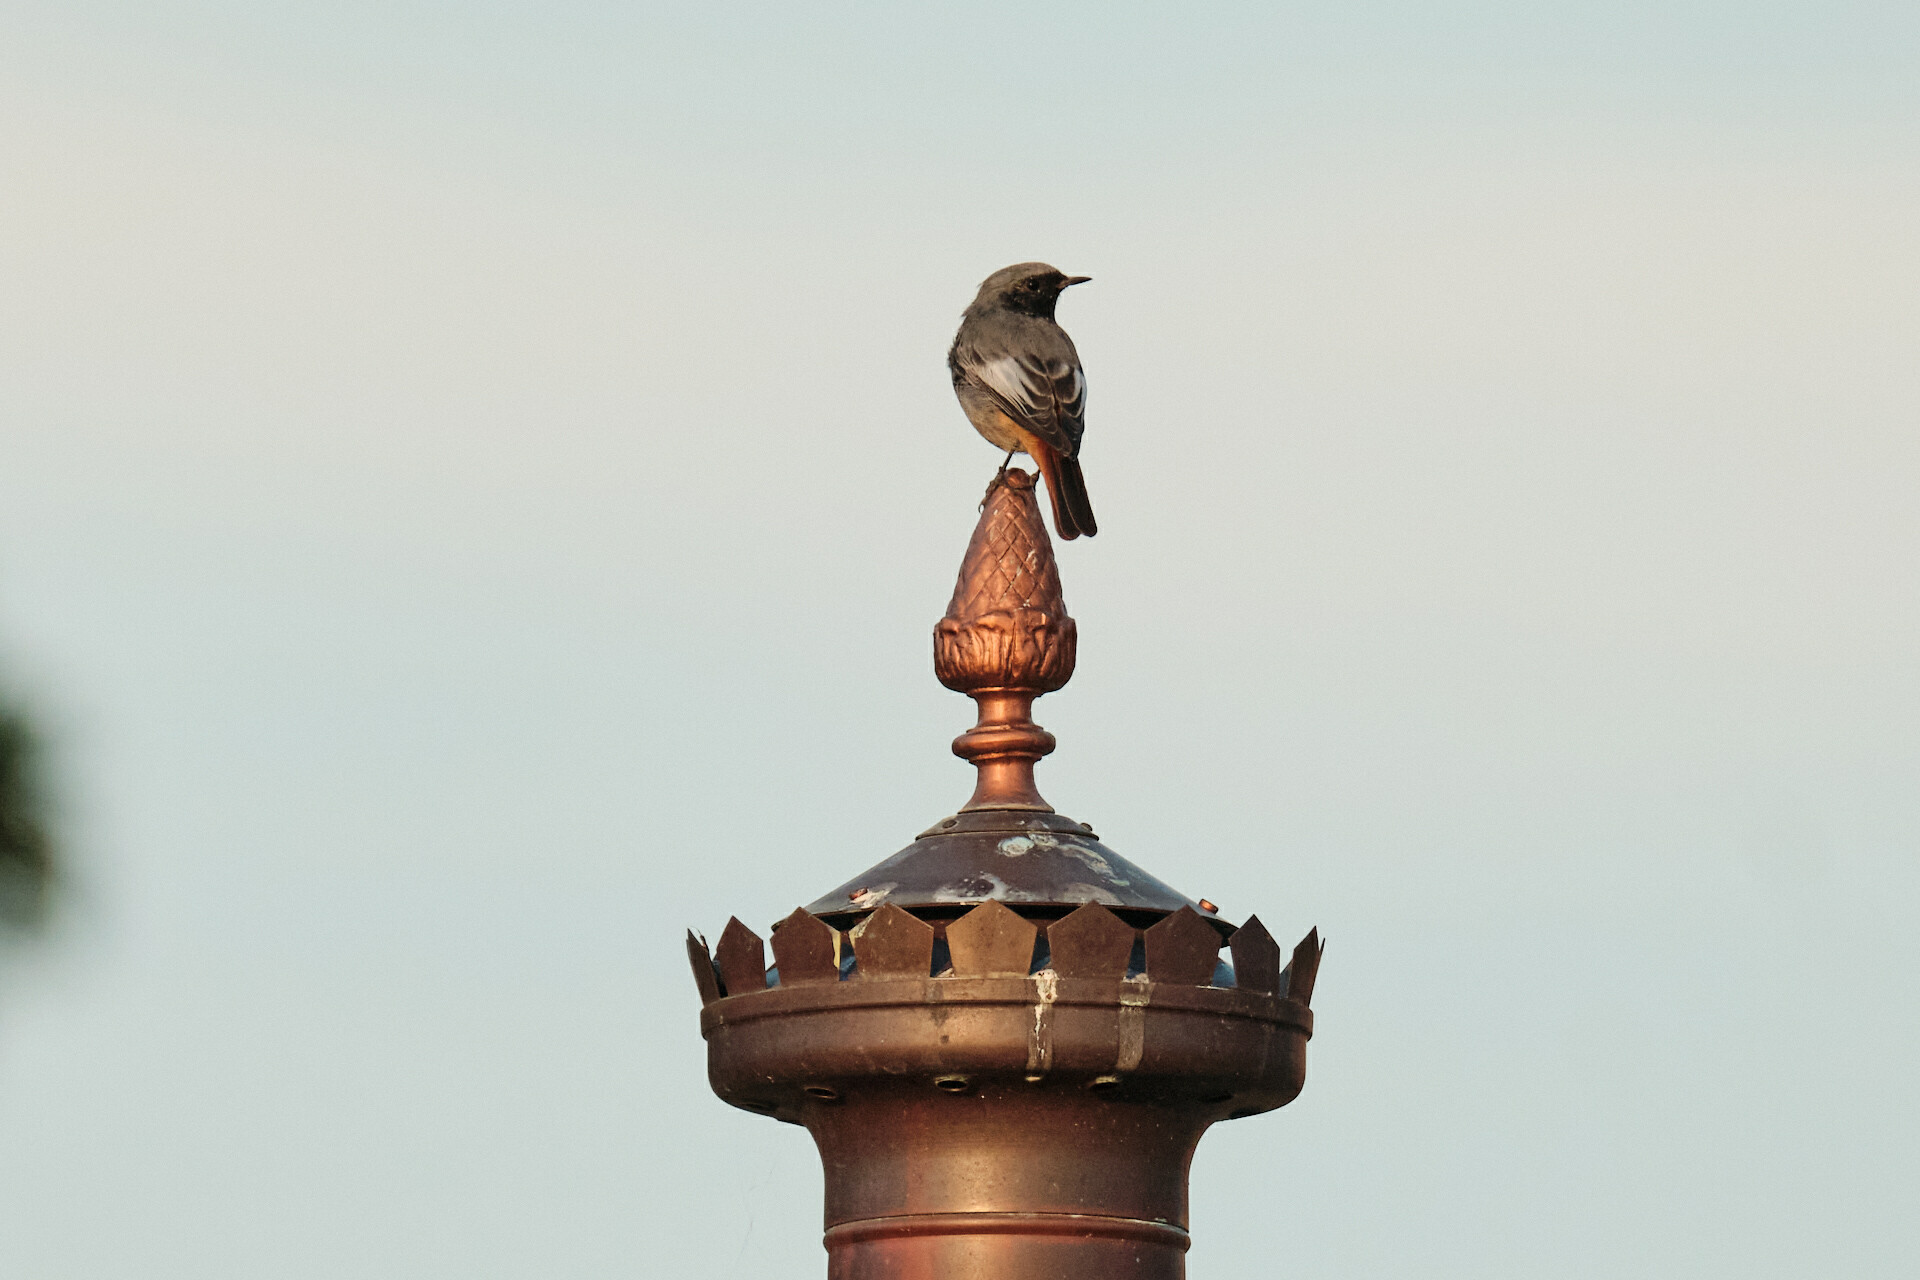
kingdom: Animalia
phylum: Chordata
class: Aves
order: Passeriformes
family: Muscicapidae
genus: Phoenicurus
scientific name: Phoenicurus ochruros
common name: Black redstart
